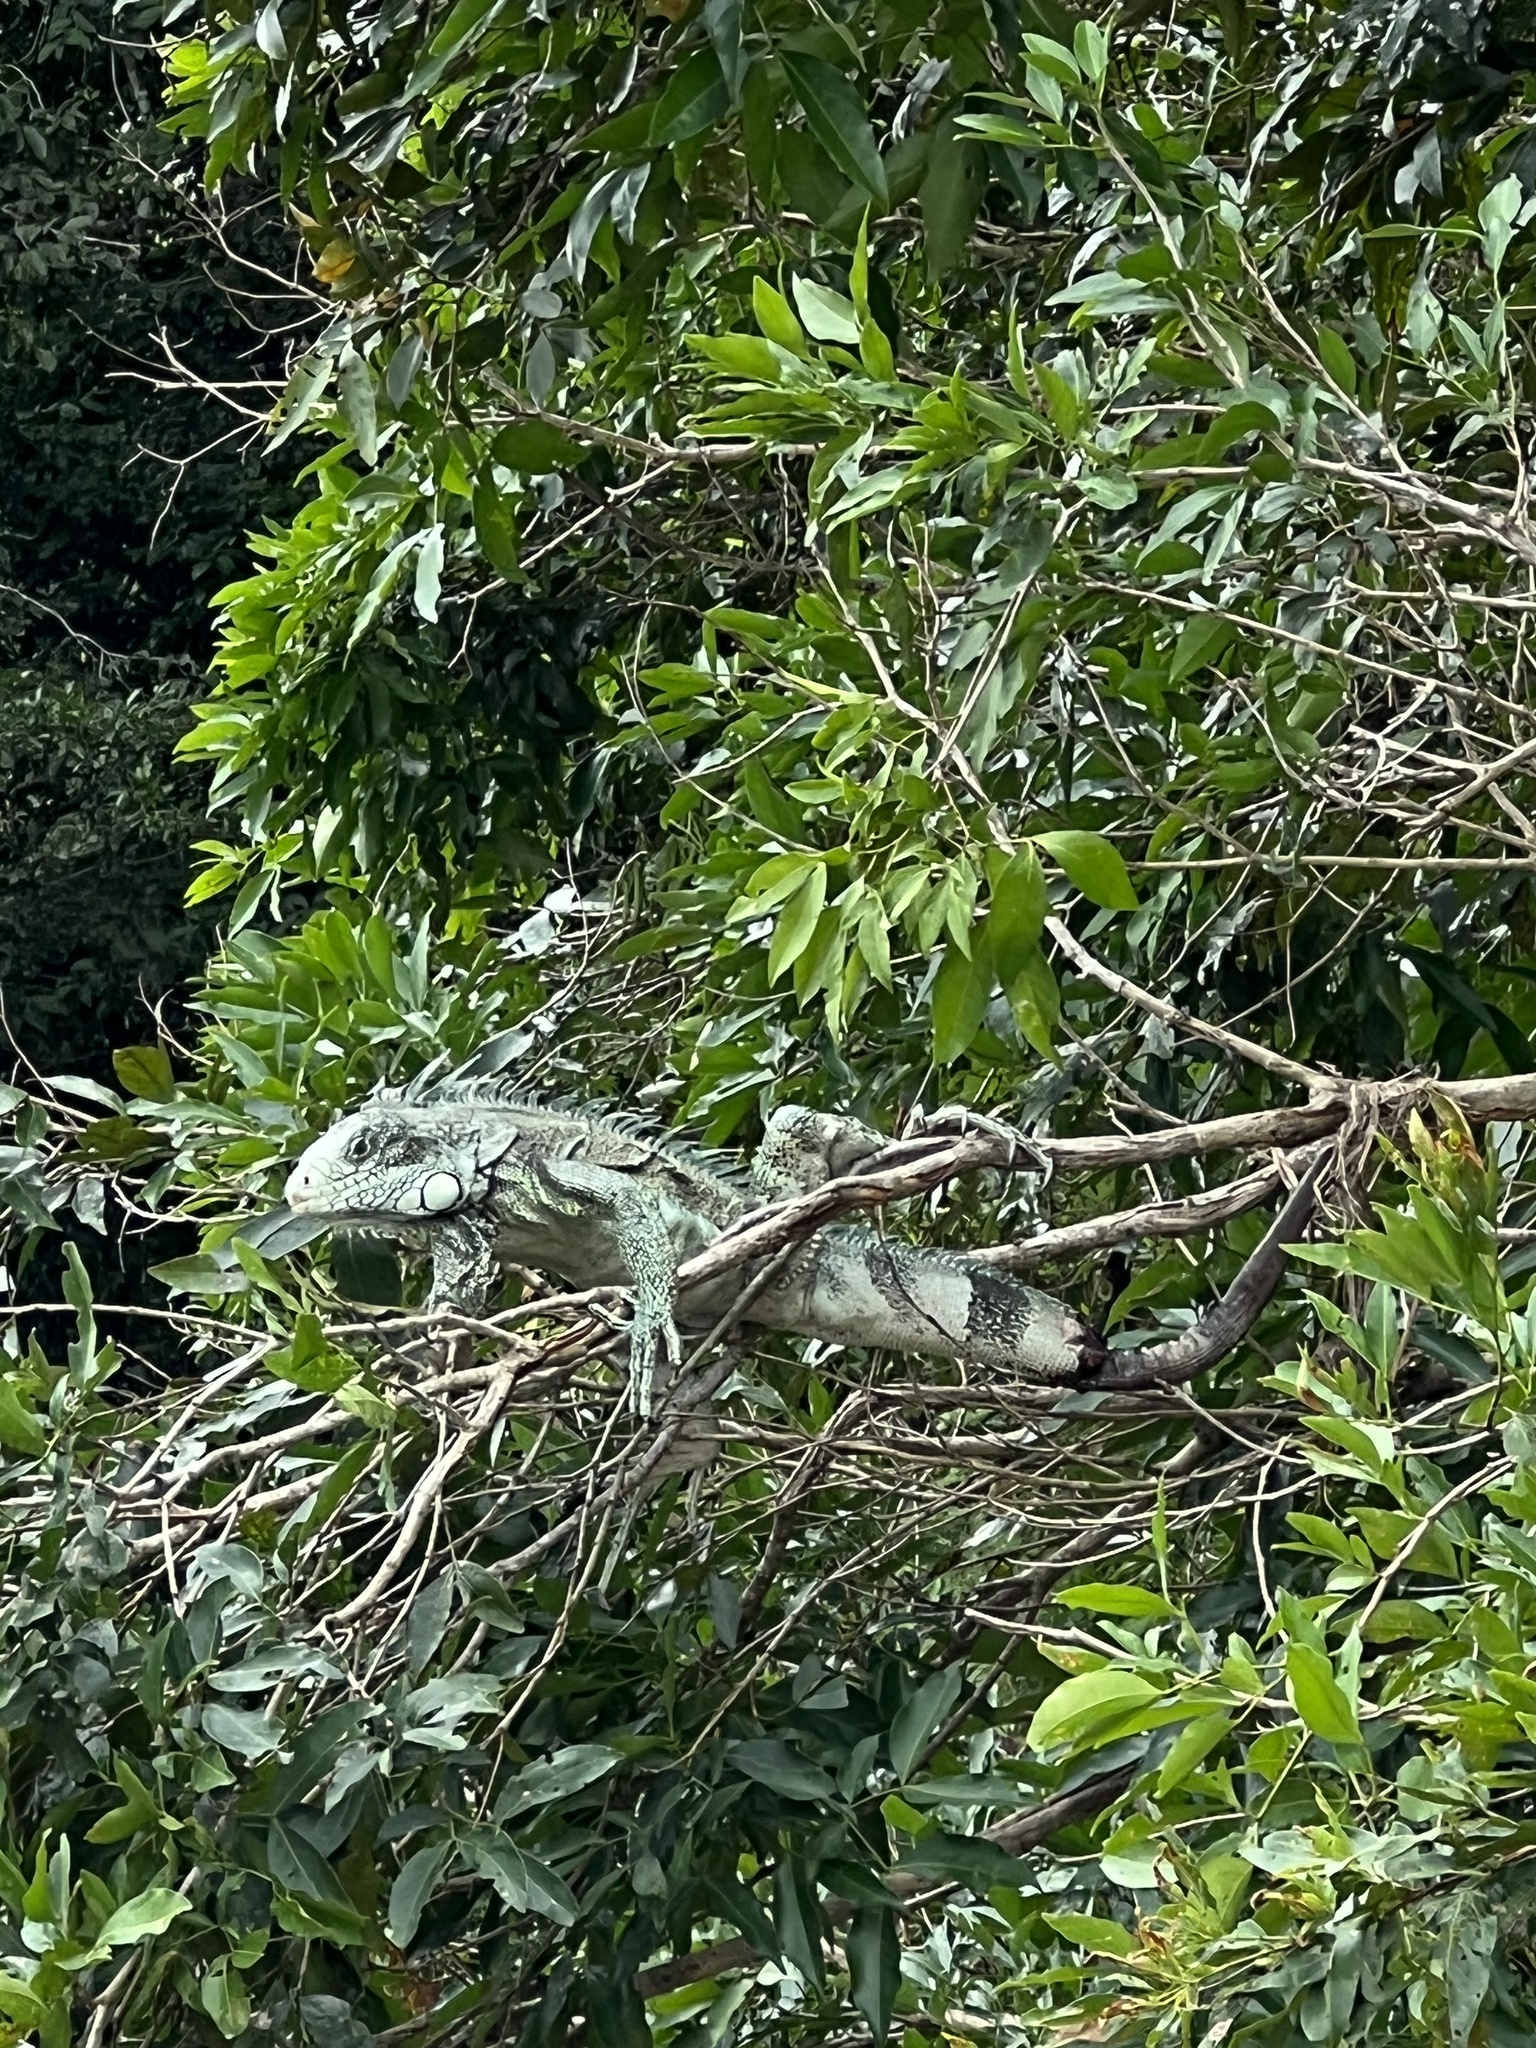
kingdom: Animalia
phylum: Chordata
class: Squamata
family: Iguanidae
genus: Iguana
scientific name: Iguana iguana
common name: Green iguana
